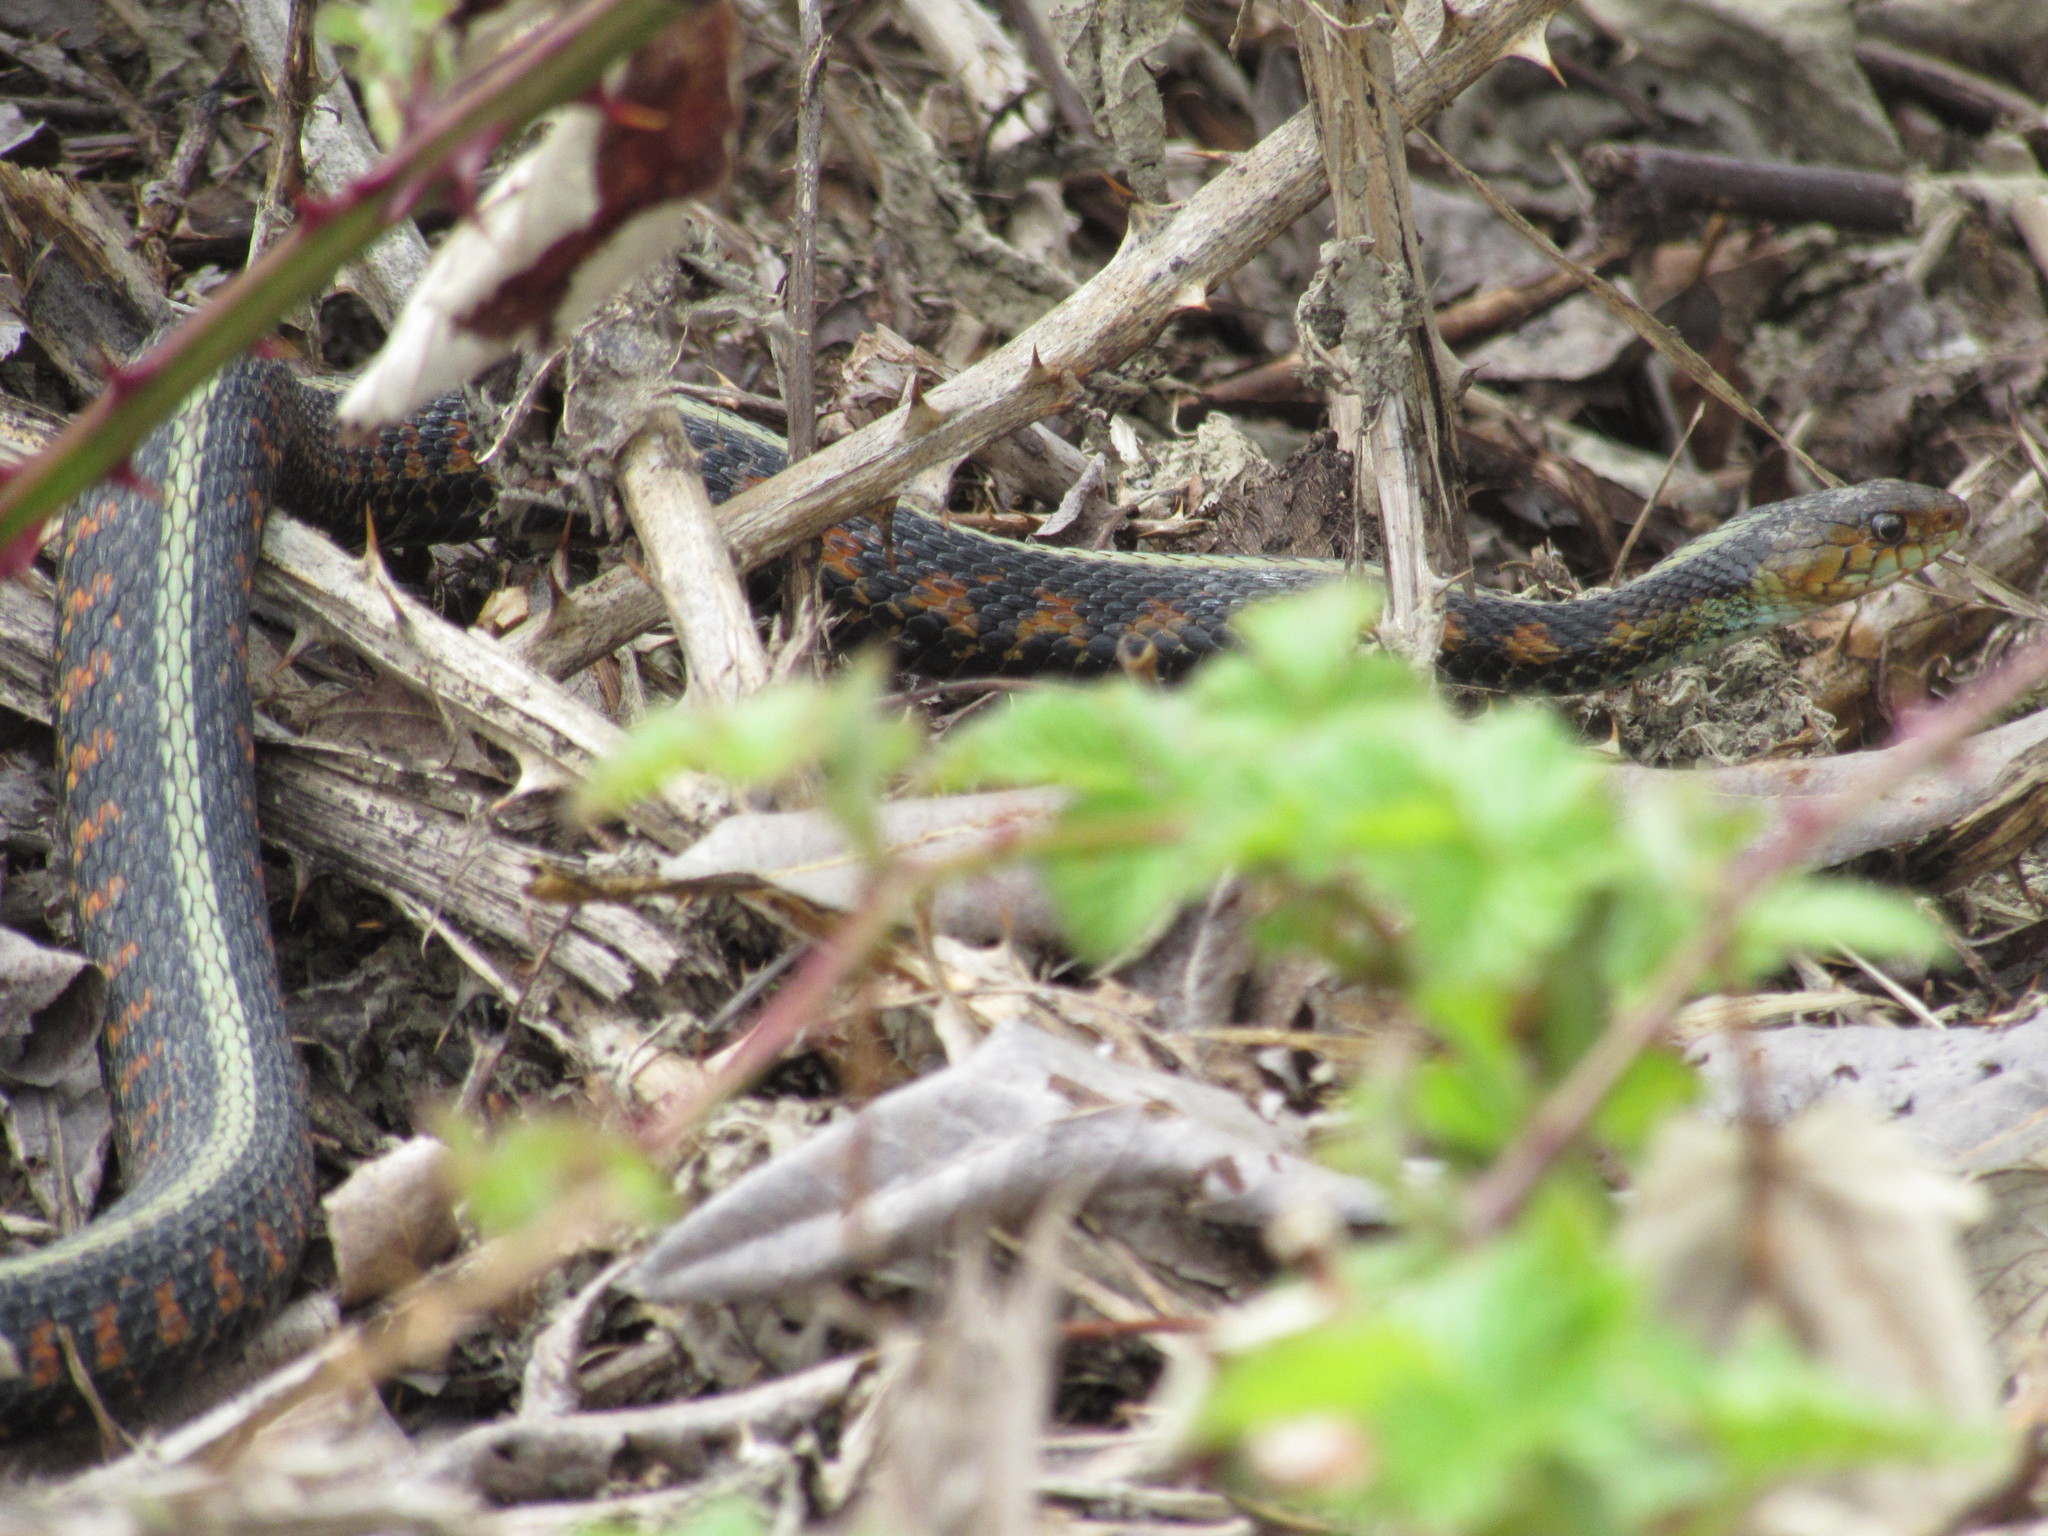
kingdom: Animalia
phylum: Chordata
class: Squamata
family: Colubridae
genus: Thamnophis
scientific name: Thamnophis sirtalis
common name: Common garter snake
